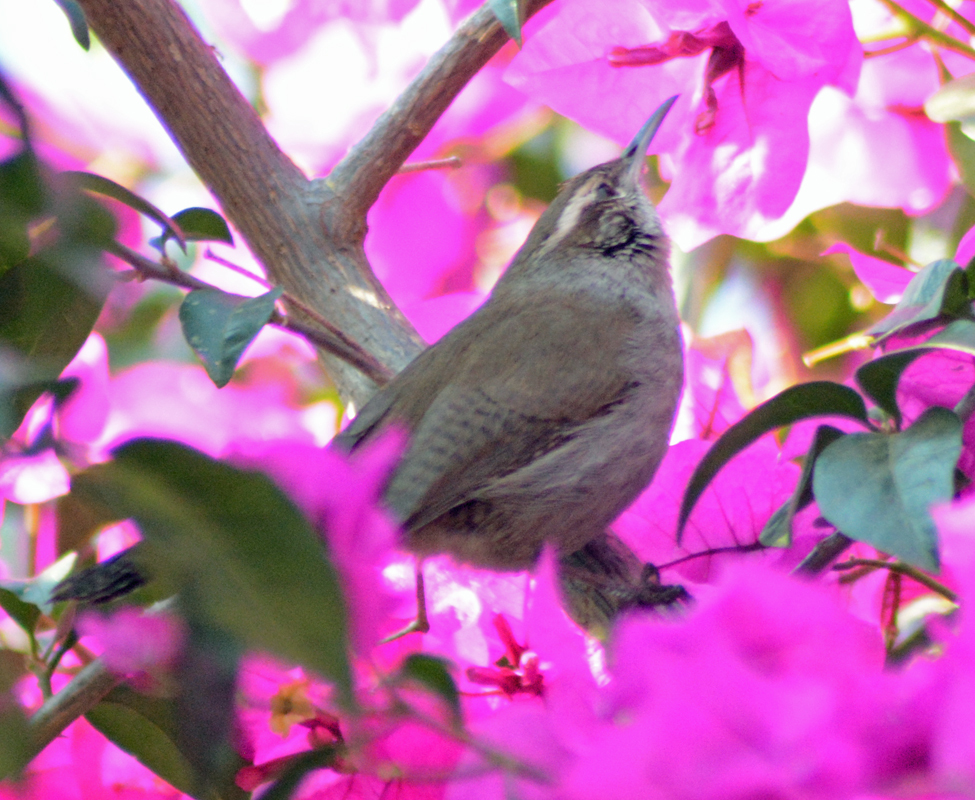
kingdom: Animalia
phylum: Chordata
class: Aves
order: Passeriformes
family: Troglodytidae
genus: Thryomanes
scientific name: Thryomanes bewickii
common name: Bewick's wren
